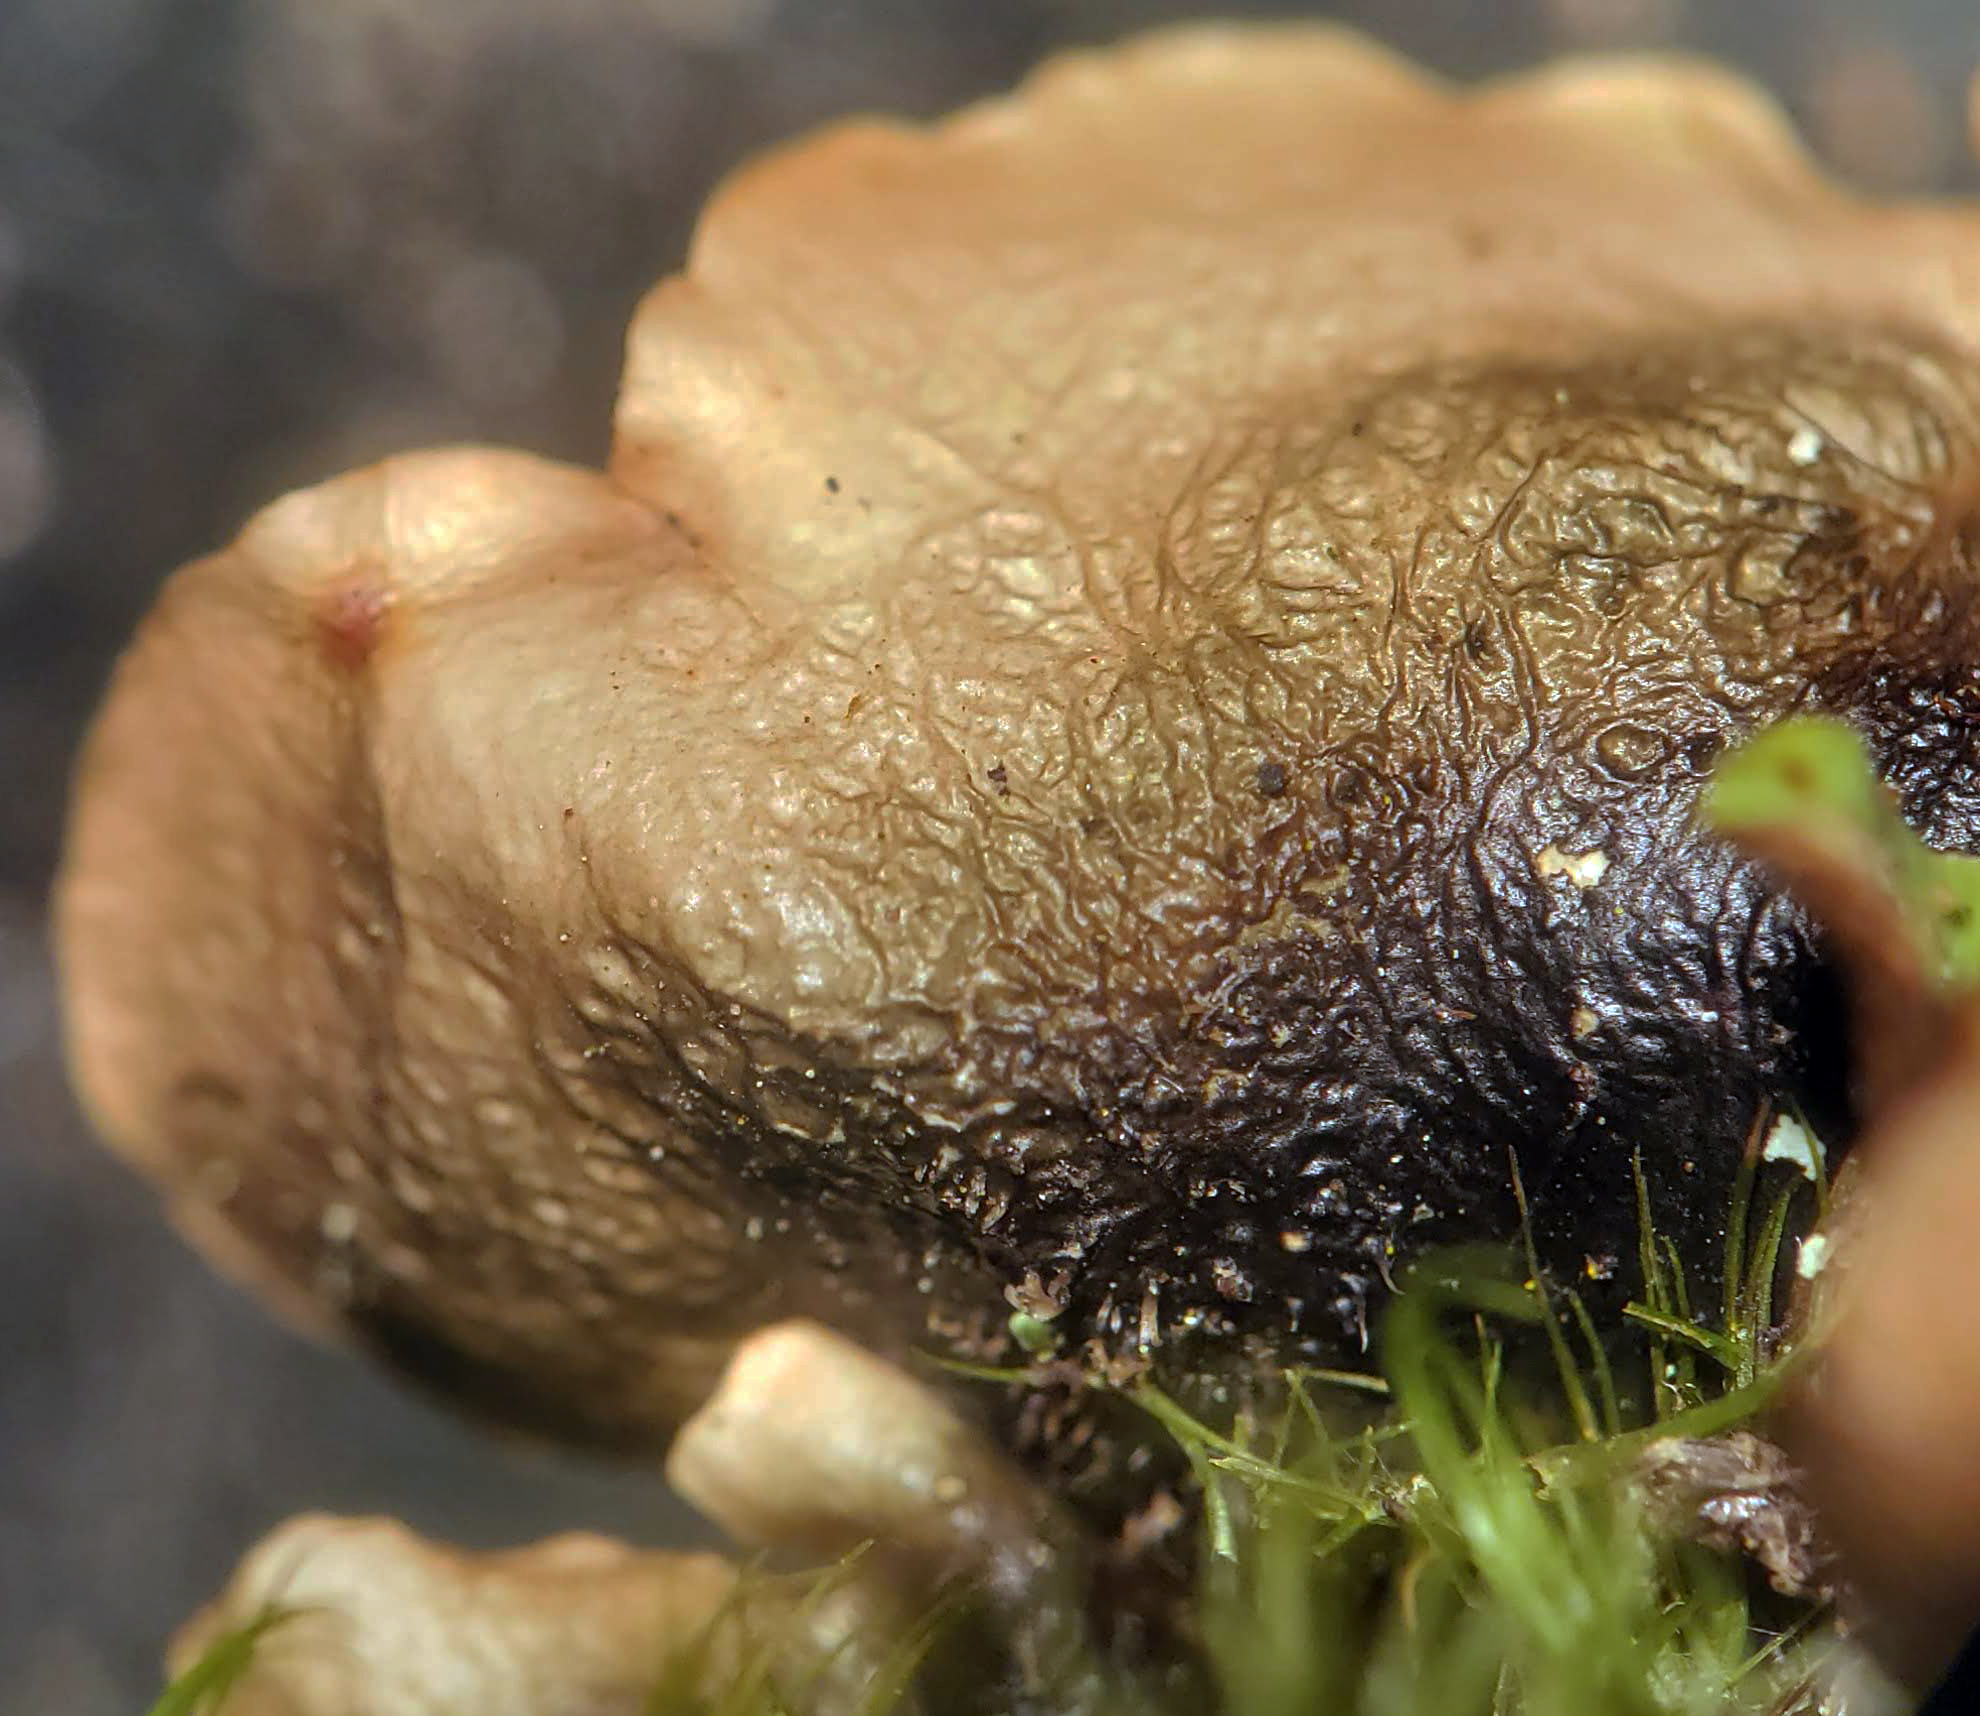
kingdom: Fungi
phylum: Ascomycota
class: Lecanoromycetes
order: Lecanorales
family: Parmeliaceae
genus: Cetrelia
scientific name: Cetrelia chicitae
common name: Chicita's sea storm lichen
